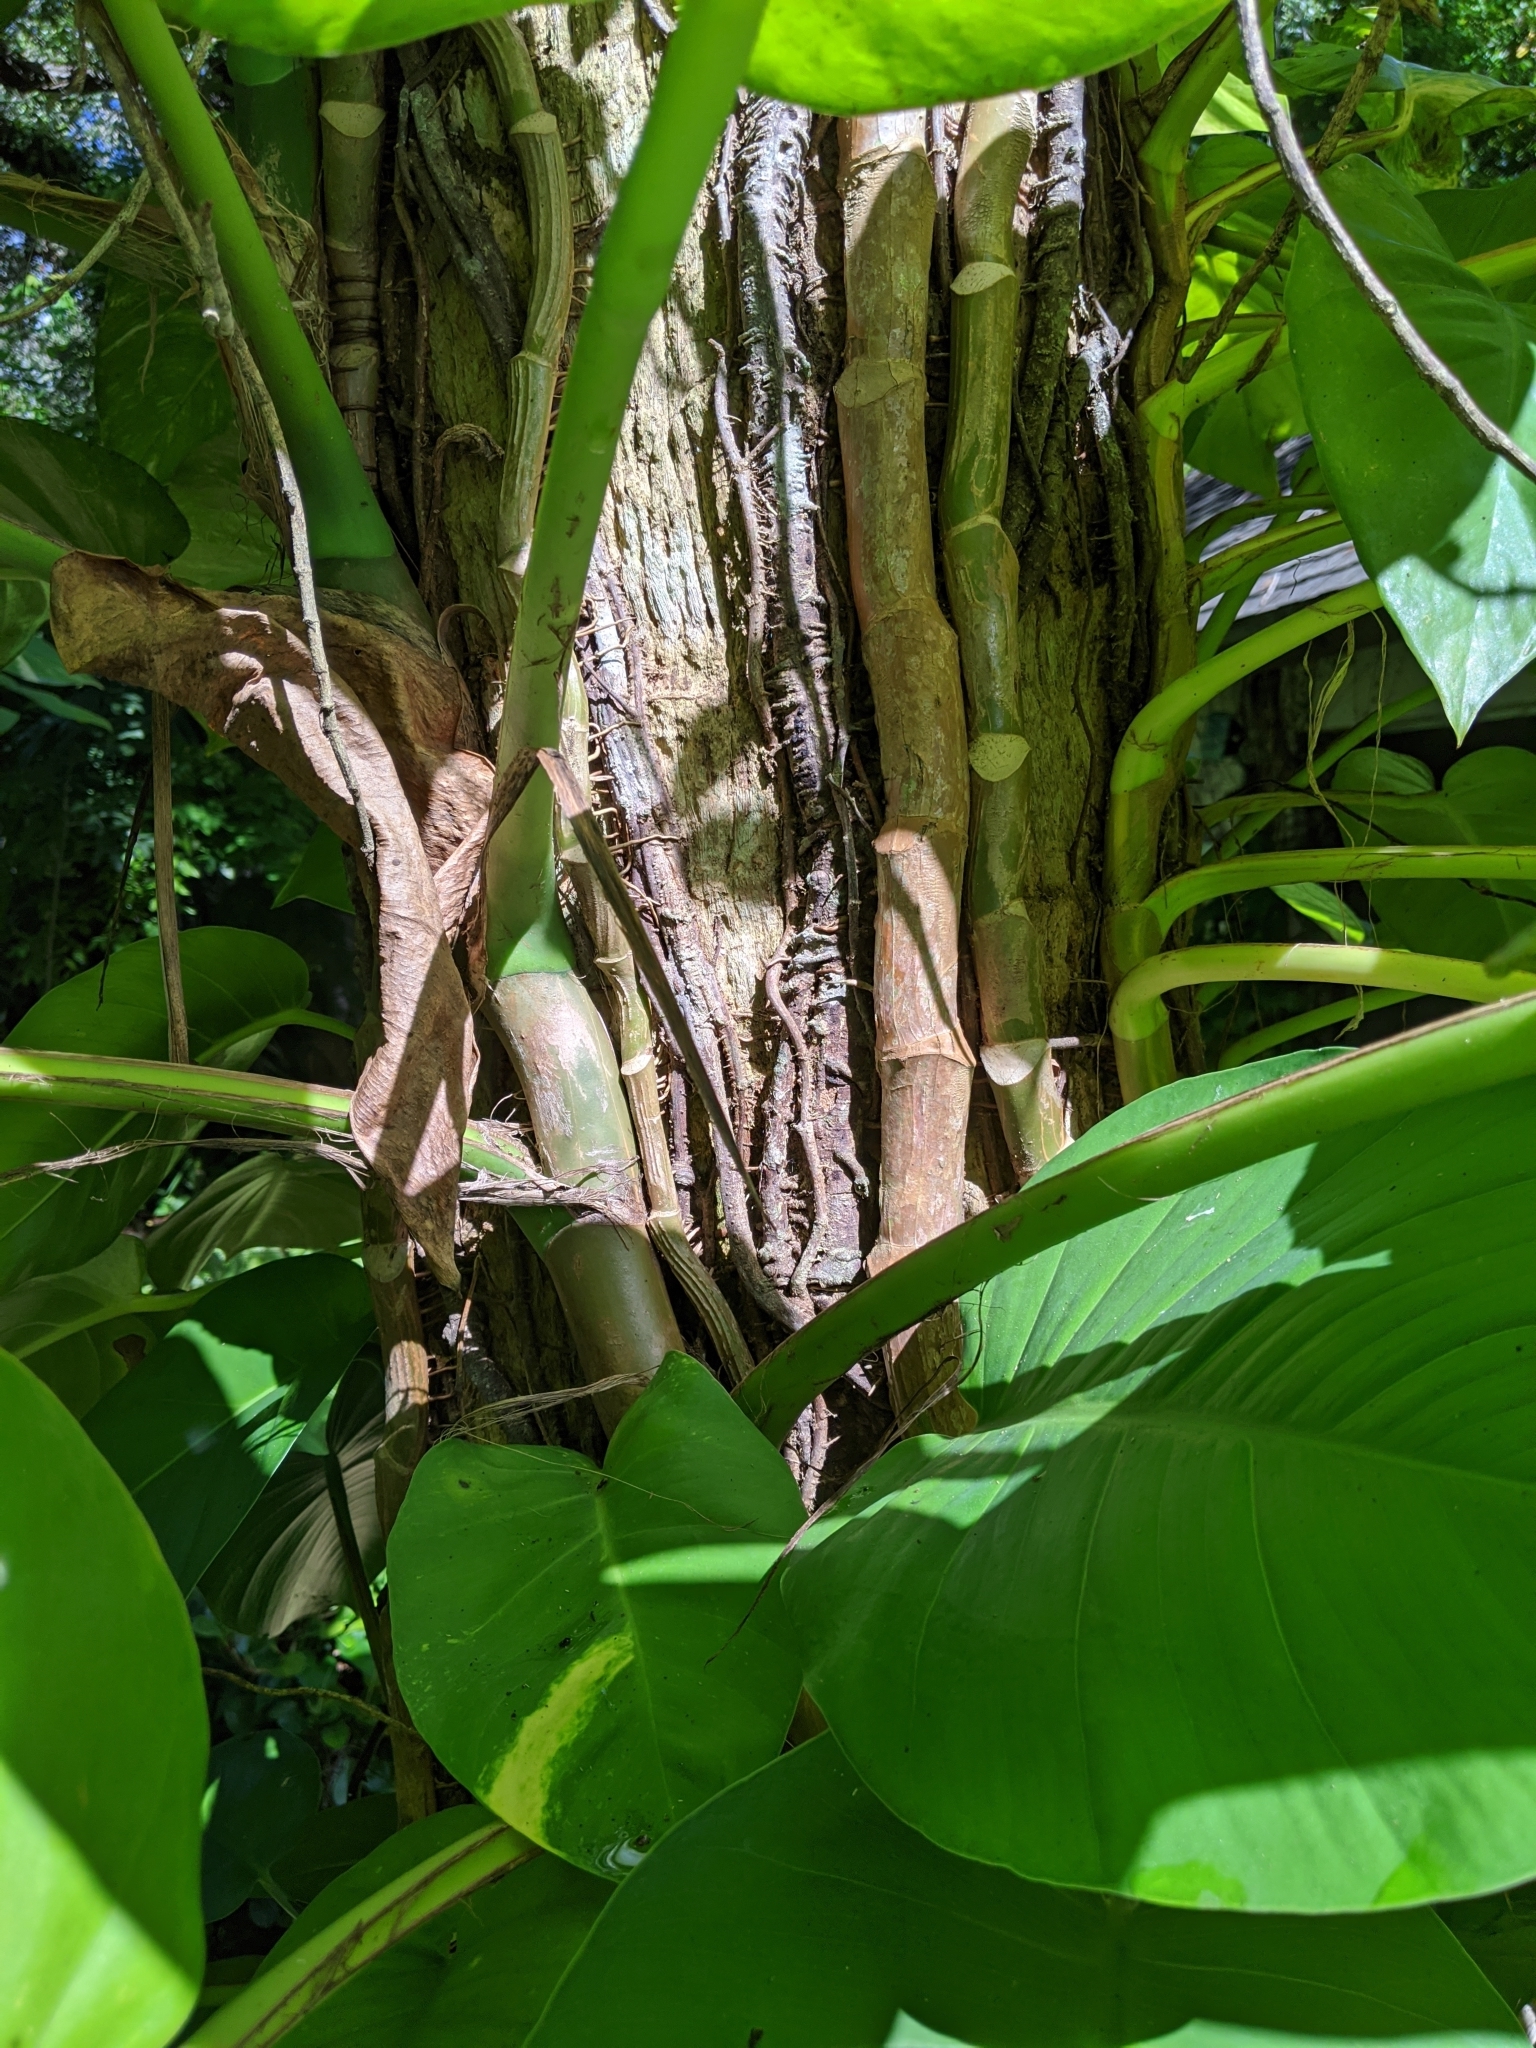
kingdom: Plantae
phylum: Tracheophyta
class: Liliopsida
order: Alismatales
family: Araceae
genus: Epipremnum
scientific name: Epipremnum aureum
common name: Golden hunter's-robe
